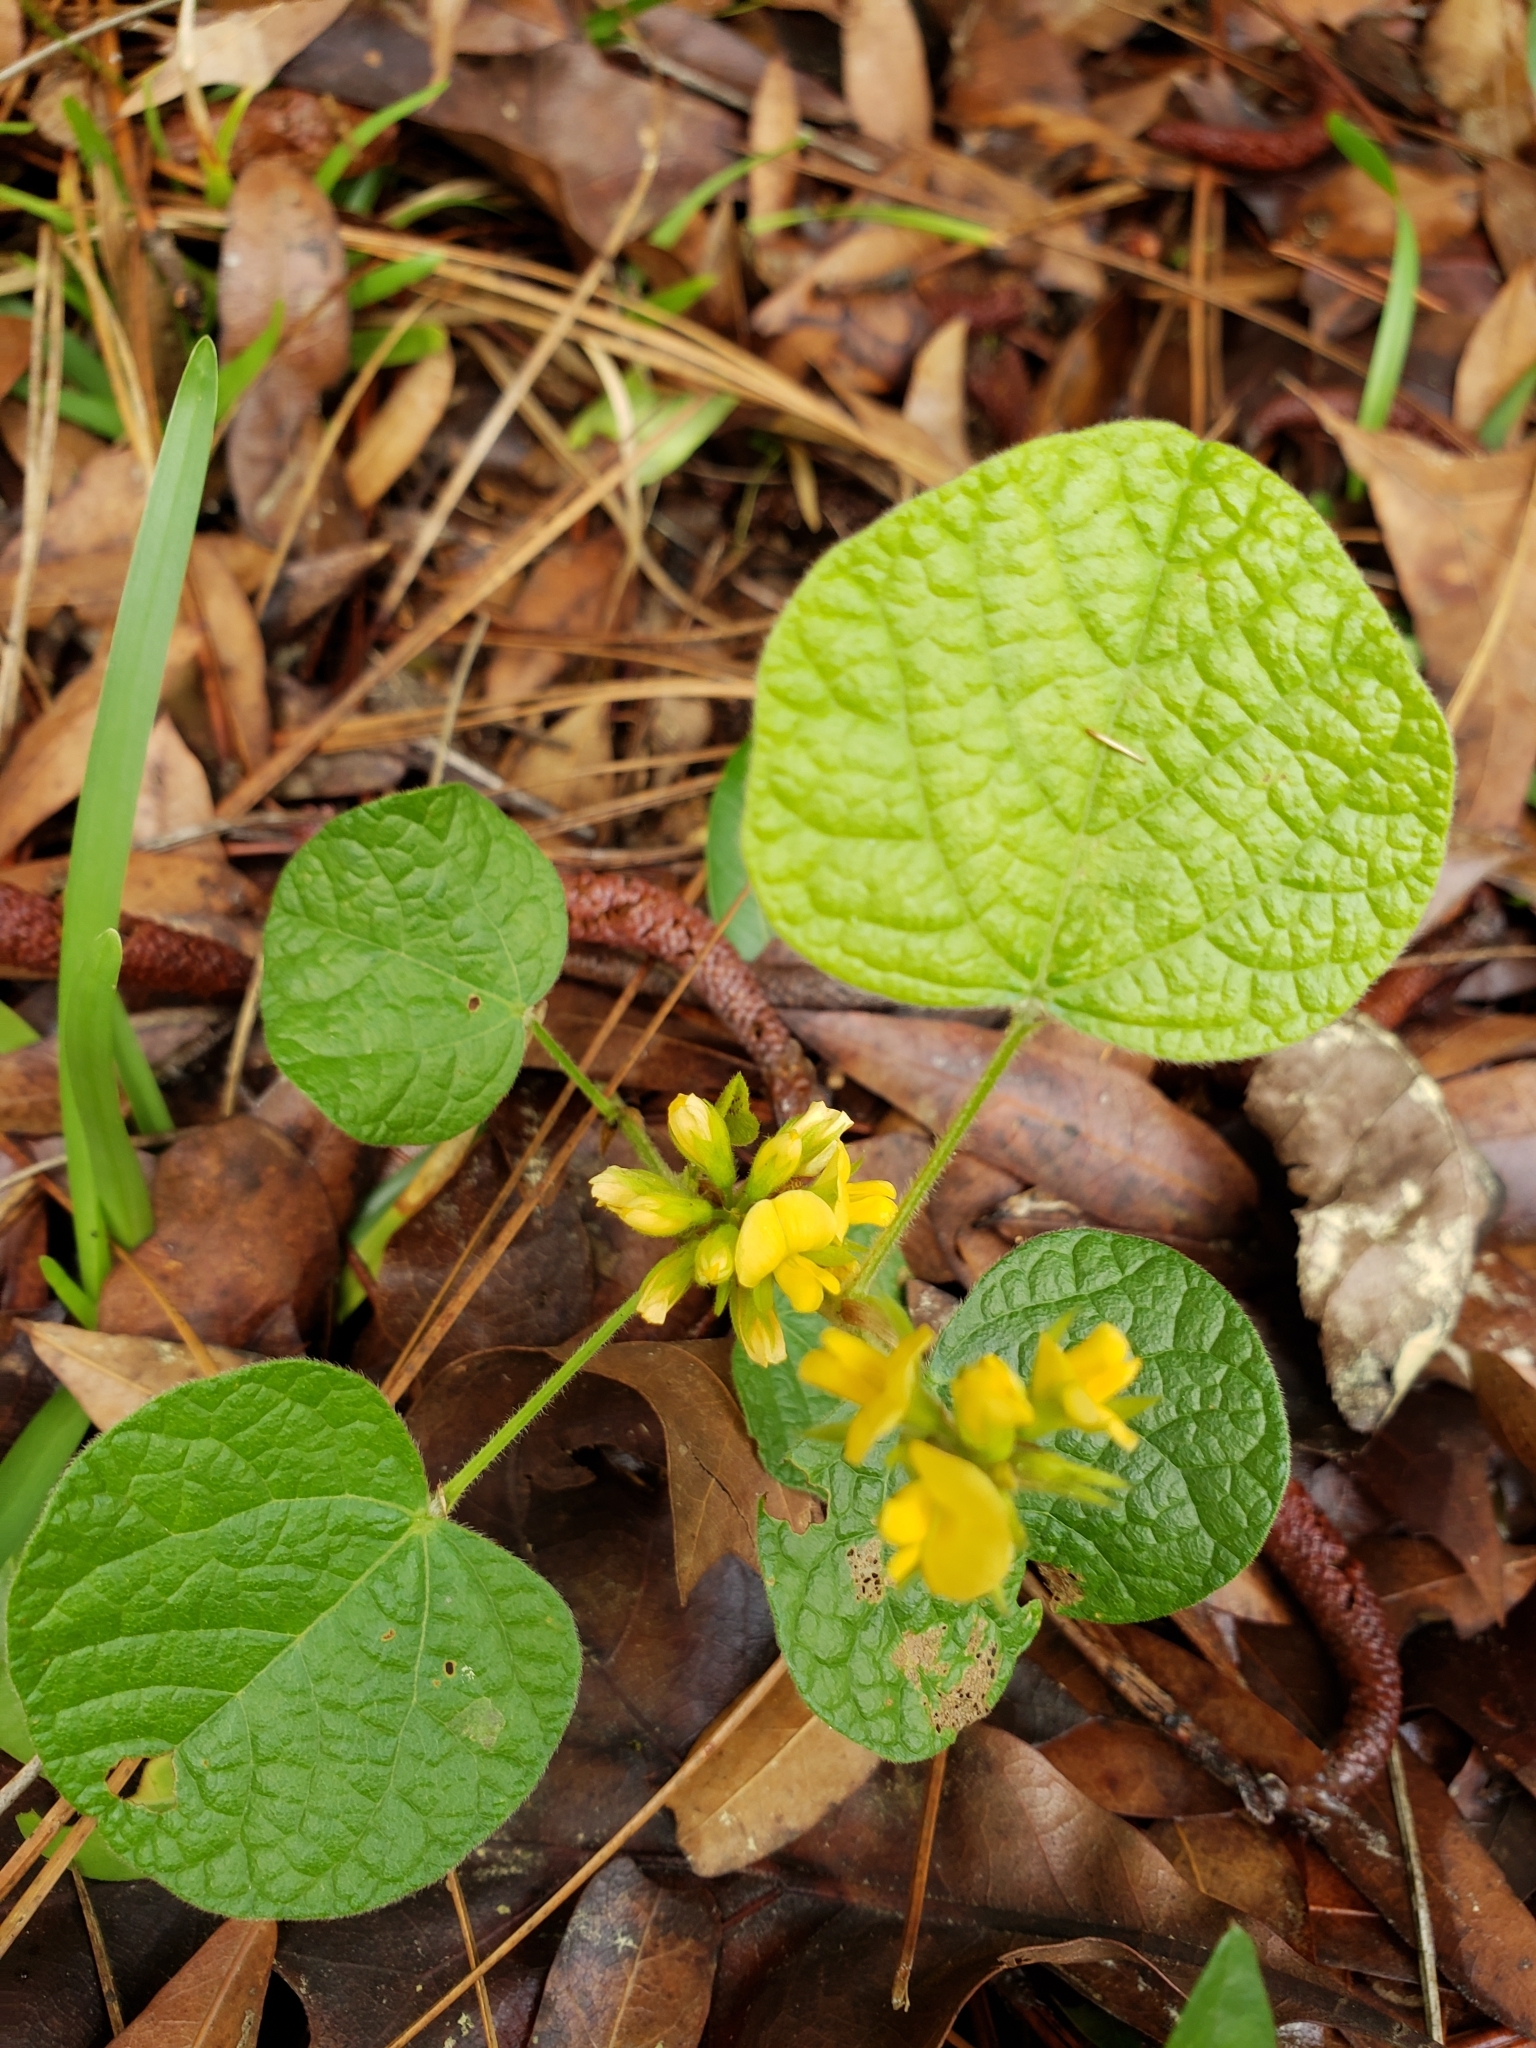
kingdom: Plantae
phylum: Tracheophyta
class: Magnoliopsida
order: Fabales
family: Fabaceae
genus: Rhynchosia
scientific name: Rhynchosia reniformis
